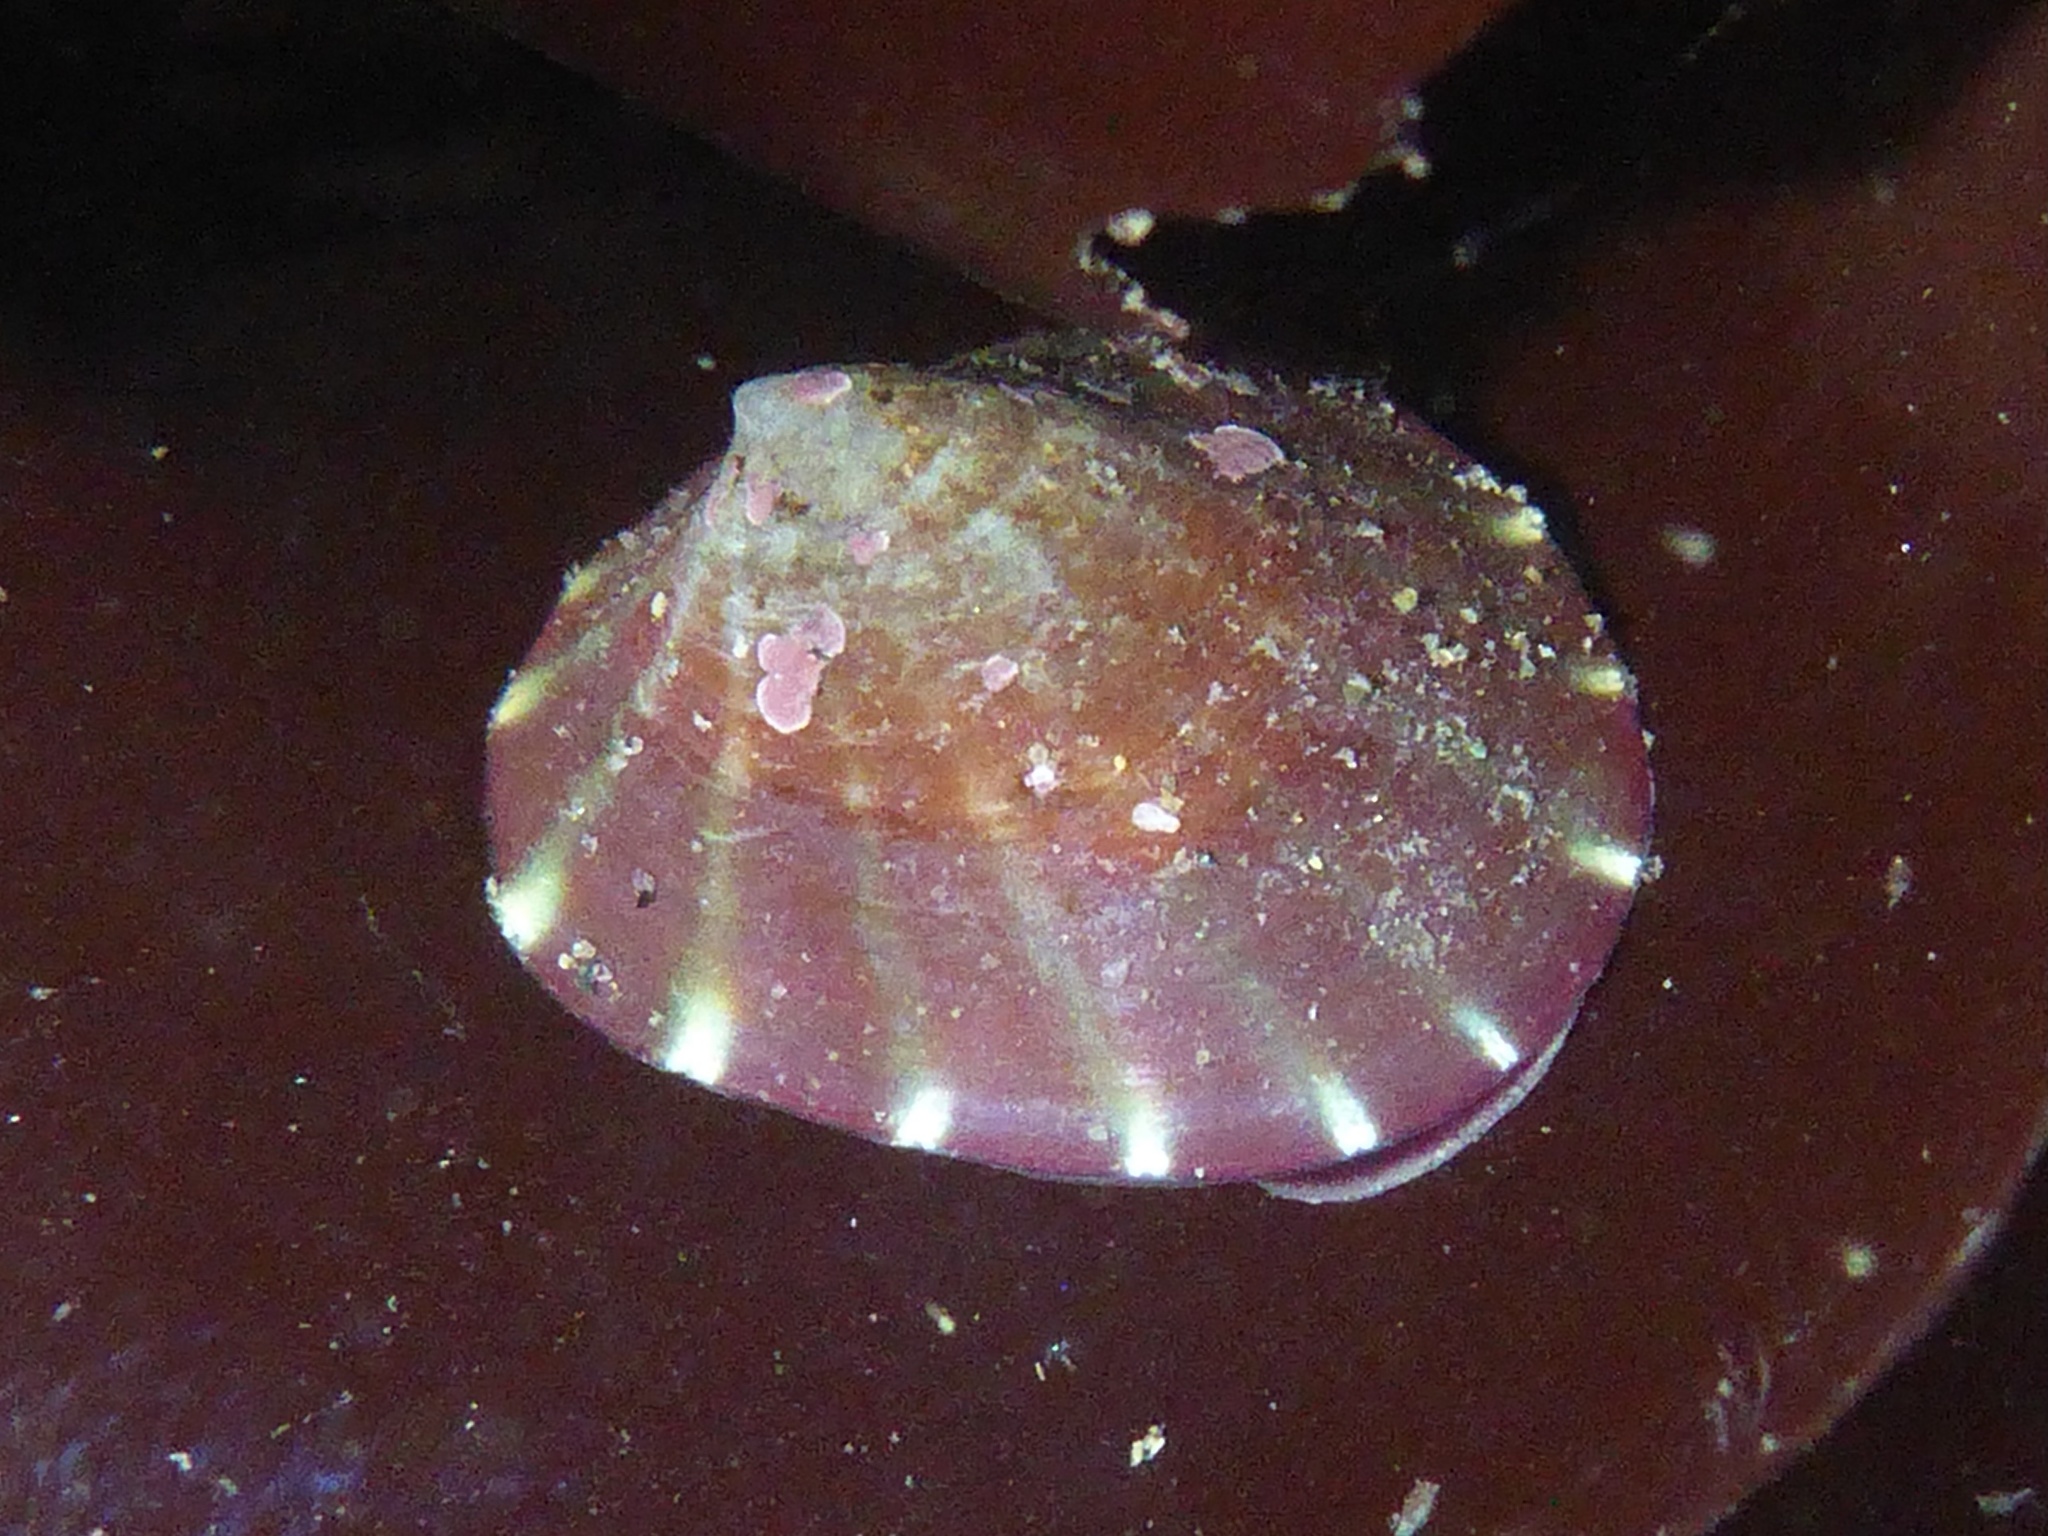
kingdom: Animalia
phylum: Mollusca
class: Gastropoda
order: Siphonariida
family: Siphonariidae
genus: Williamia
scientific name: Williamia peltoides
